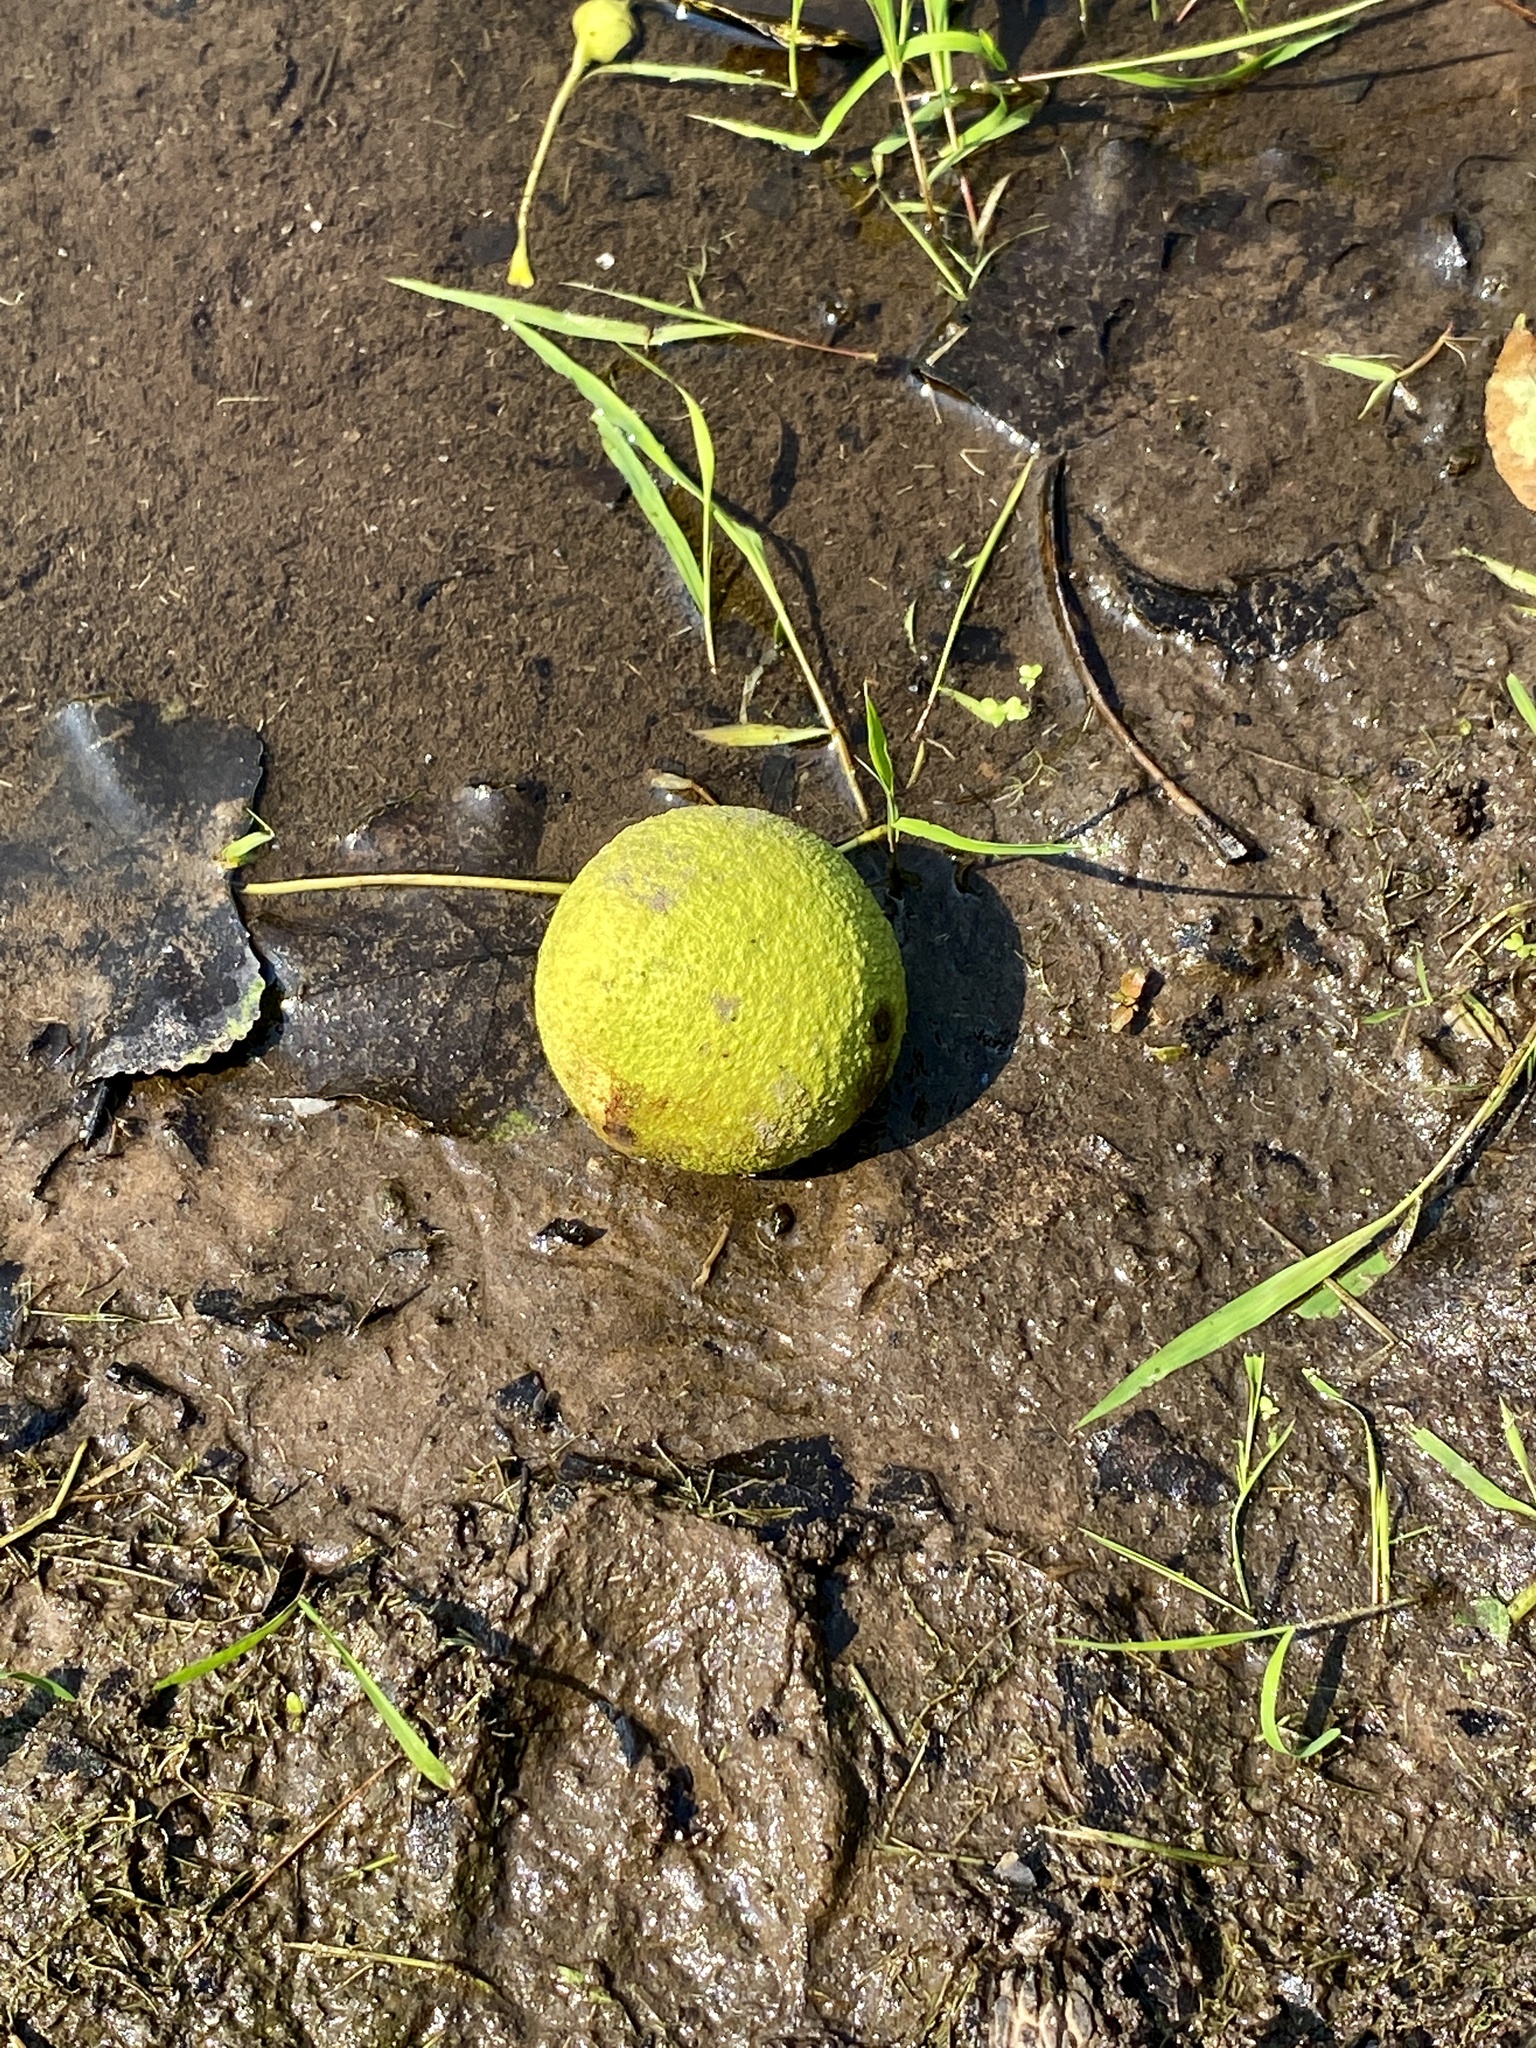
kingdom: Plantae
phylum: Tracheophyta
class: Magnoliopsida
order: Fagales
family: Juglandaceae
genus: Juglans
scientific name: Juglans nigra
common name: Black walnut
